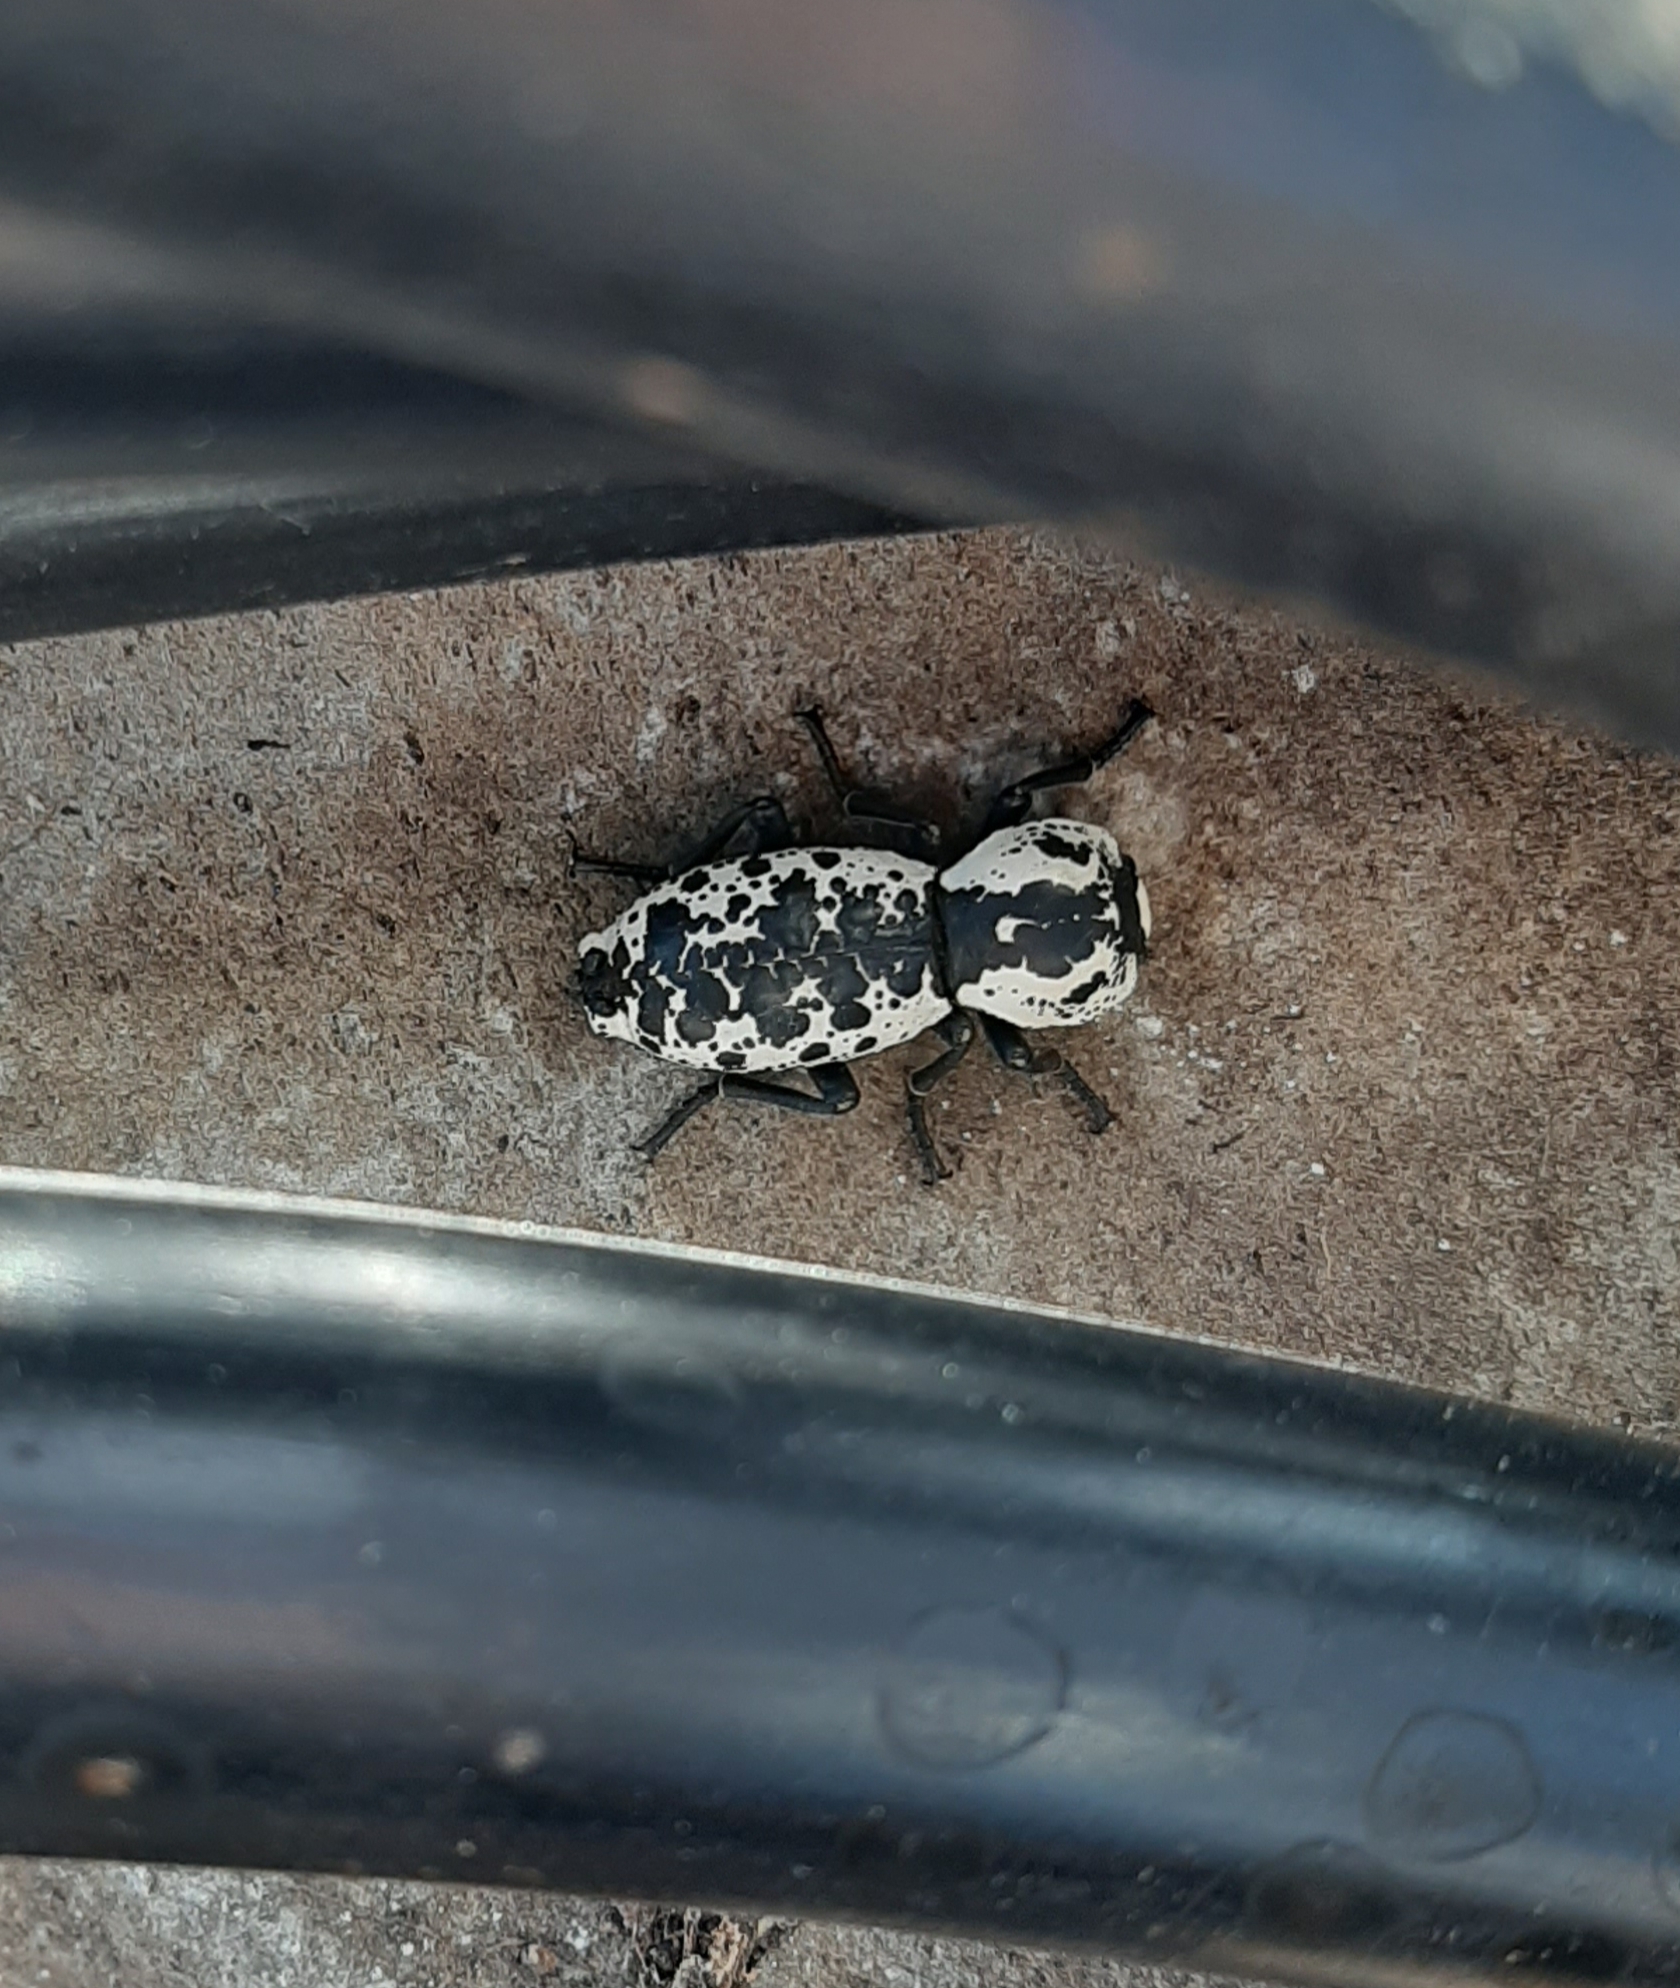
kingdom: Animalia
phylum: Arthropoda
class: Insecta
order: Coleoptera
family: Zopheridae
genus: Zopherus
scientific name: Zopherus nodulosus
